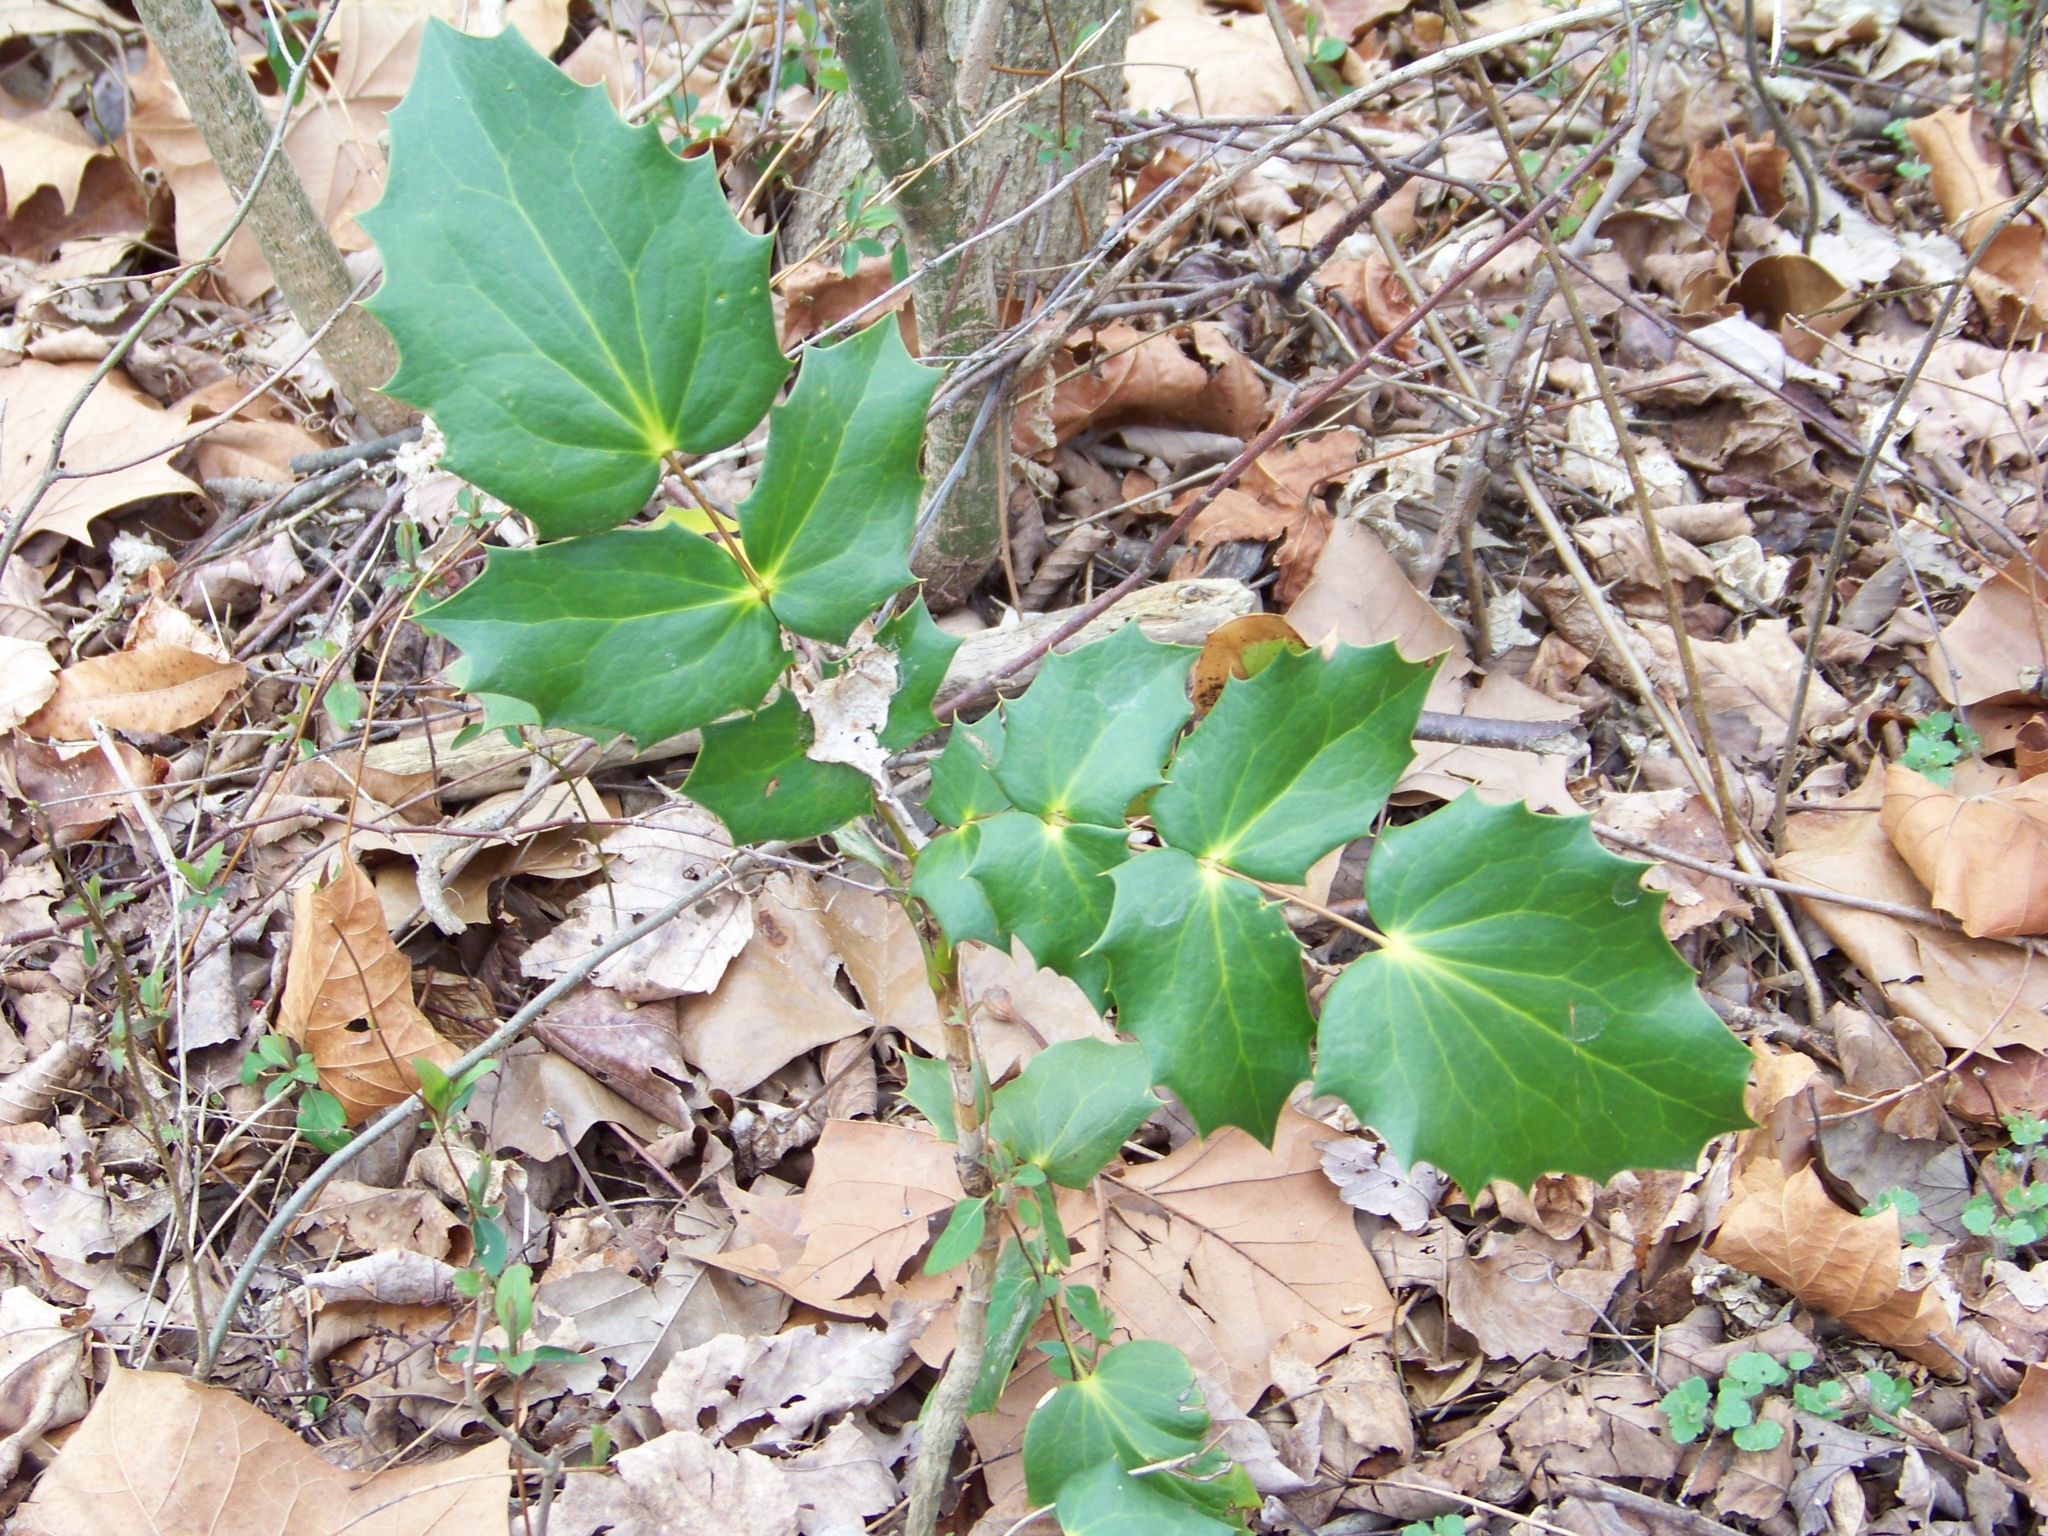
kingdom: Plantae
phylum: Tracheophyta
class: Magnoliopsida
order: Ranunculales
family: Berberidaceae
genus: Mahonia
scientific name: Mahonia bealei
